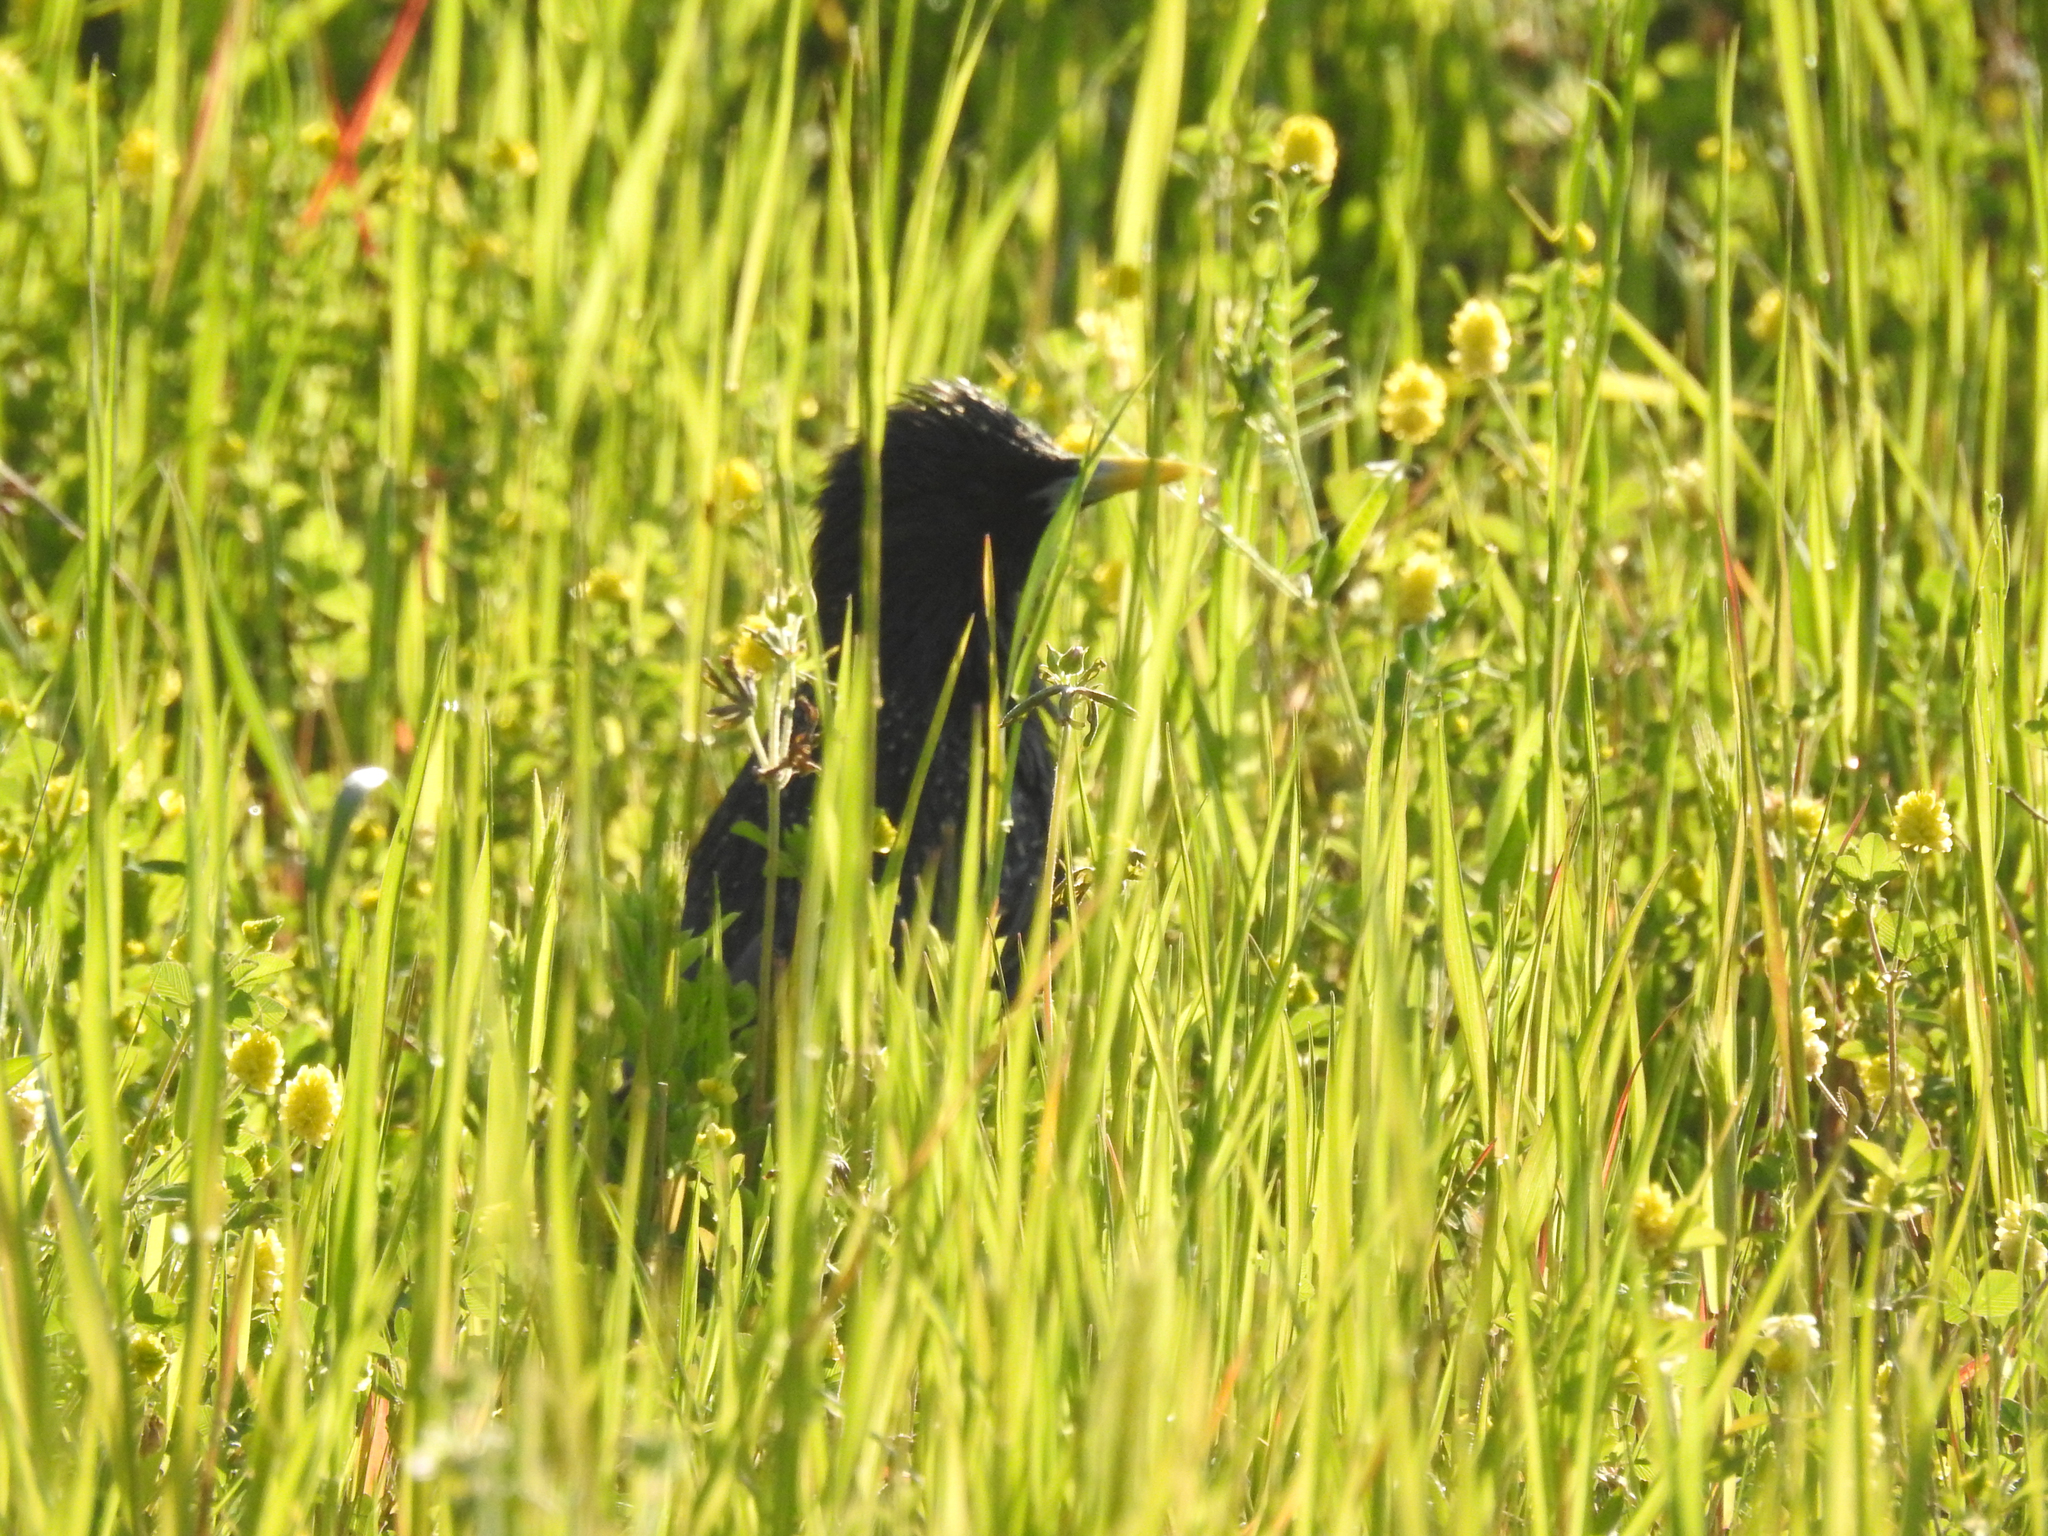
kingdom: Animalia
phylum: Chordata
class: Aves
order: Passeriformes
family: Sturnidae
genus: Sturnus
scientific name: Sturnus vulgaris
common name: Common starling
